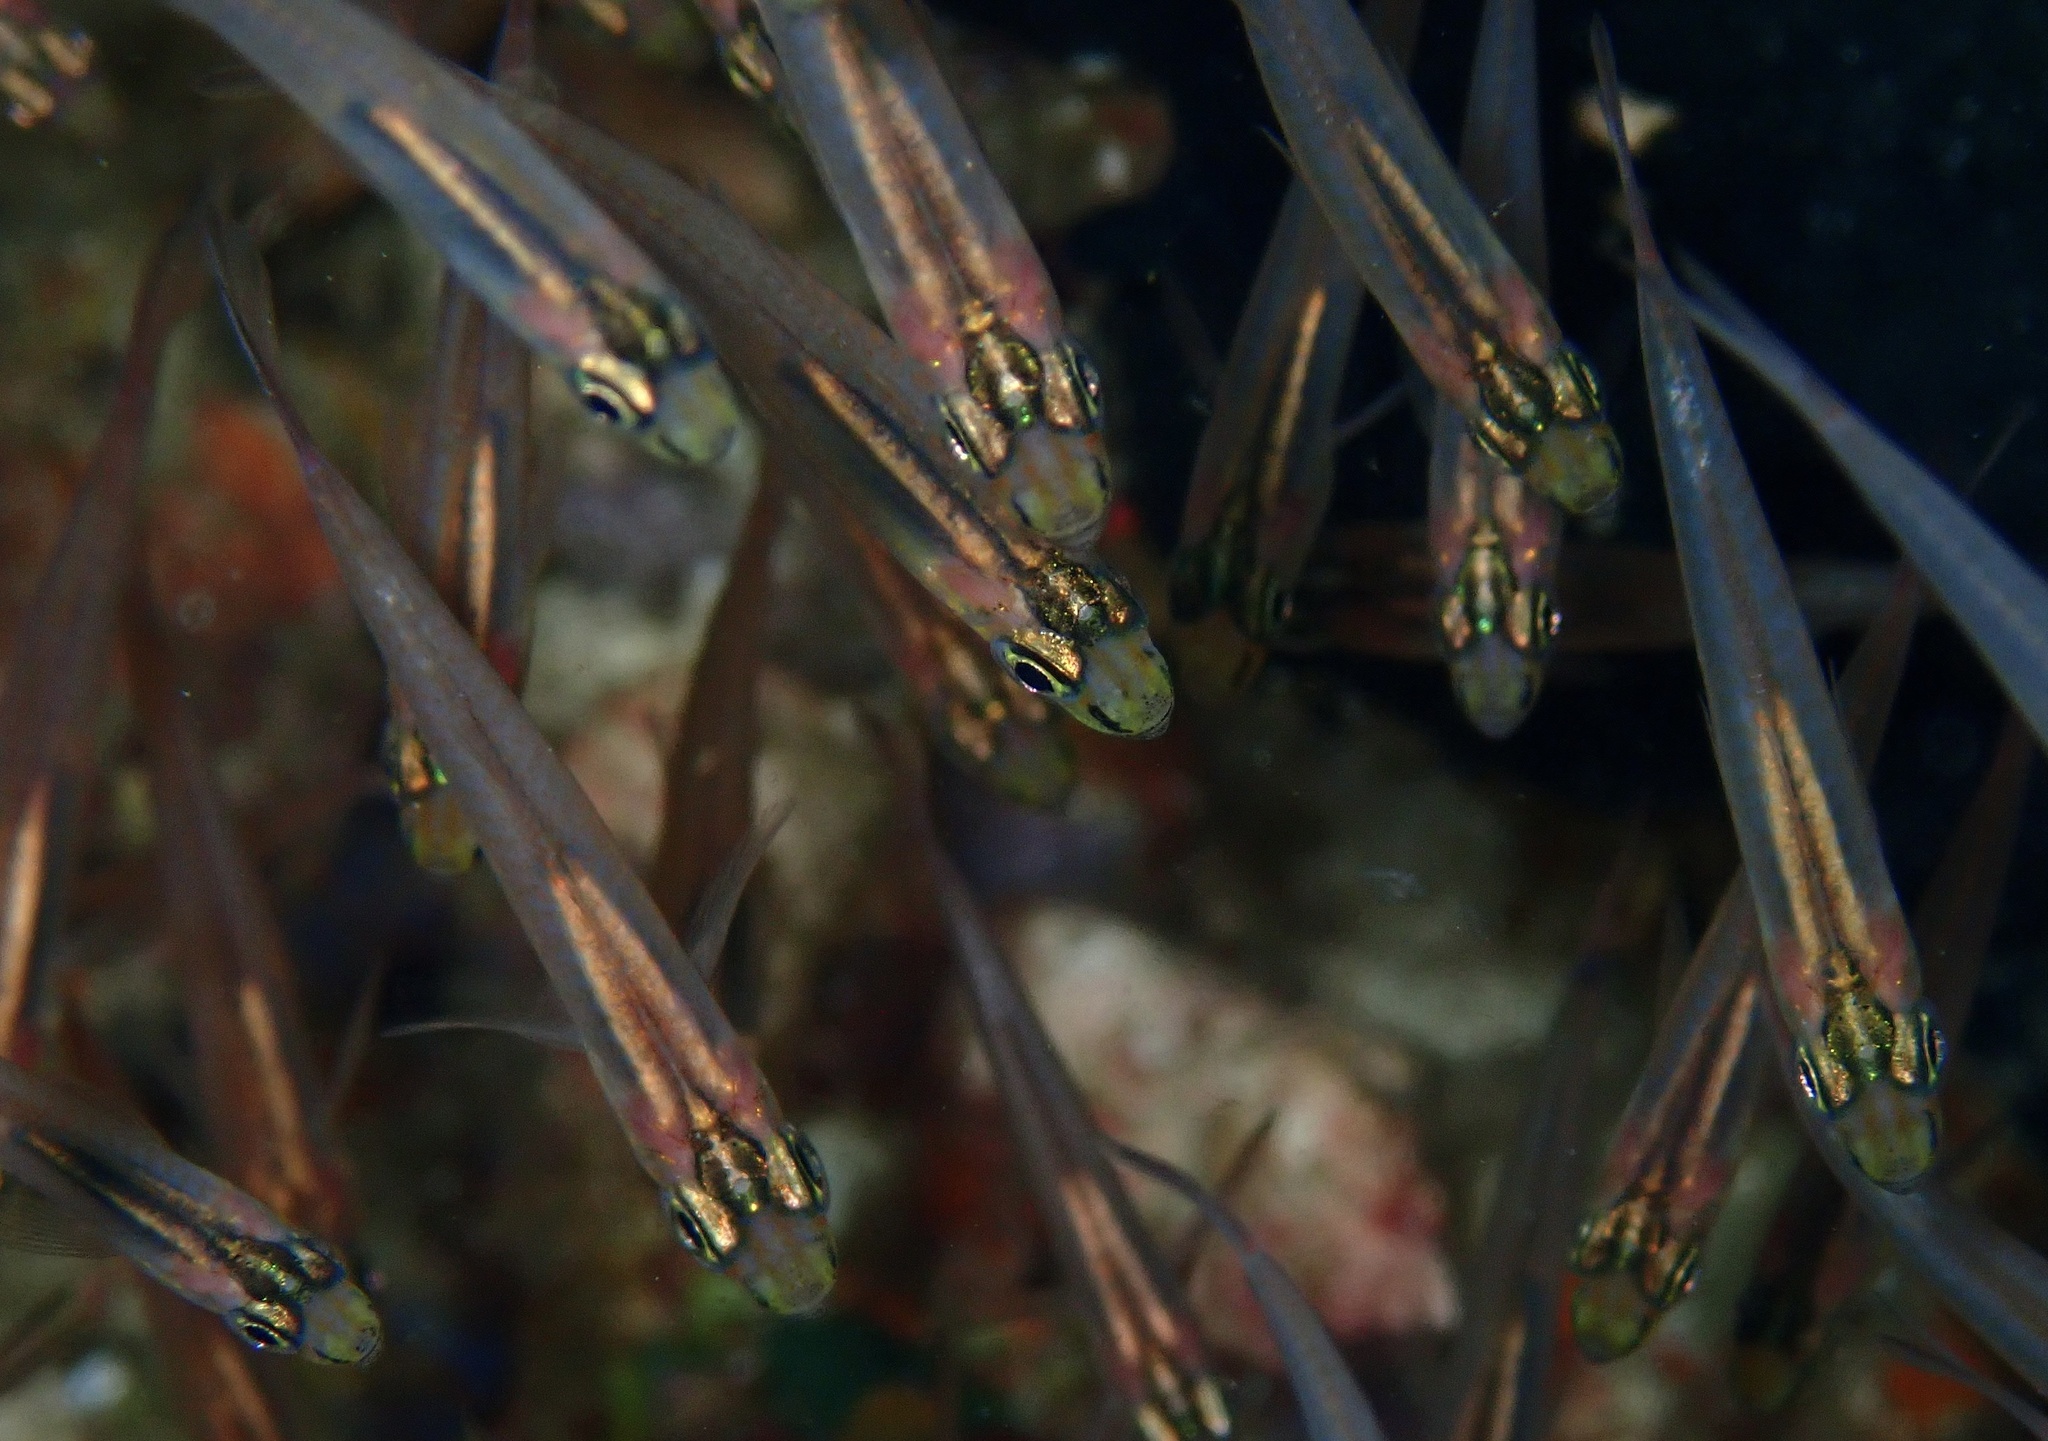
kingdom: Animalia
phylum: Chordata
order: Perciformes
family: Apogonidae
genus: Verulux
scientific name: Verulux cypselurus
